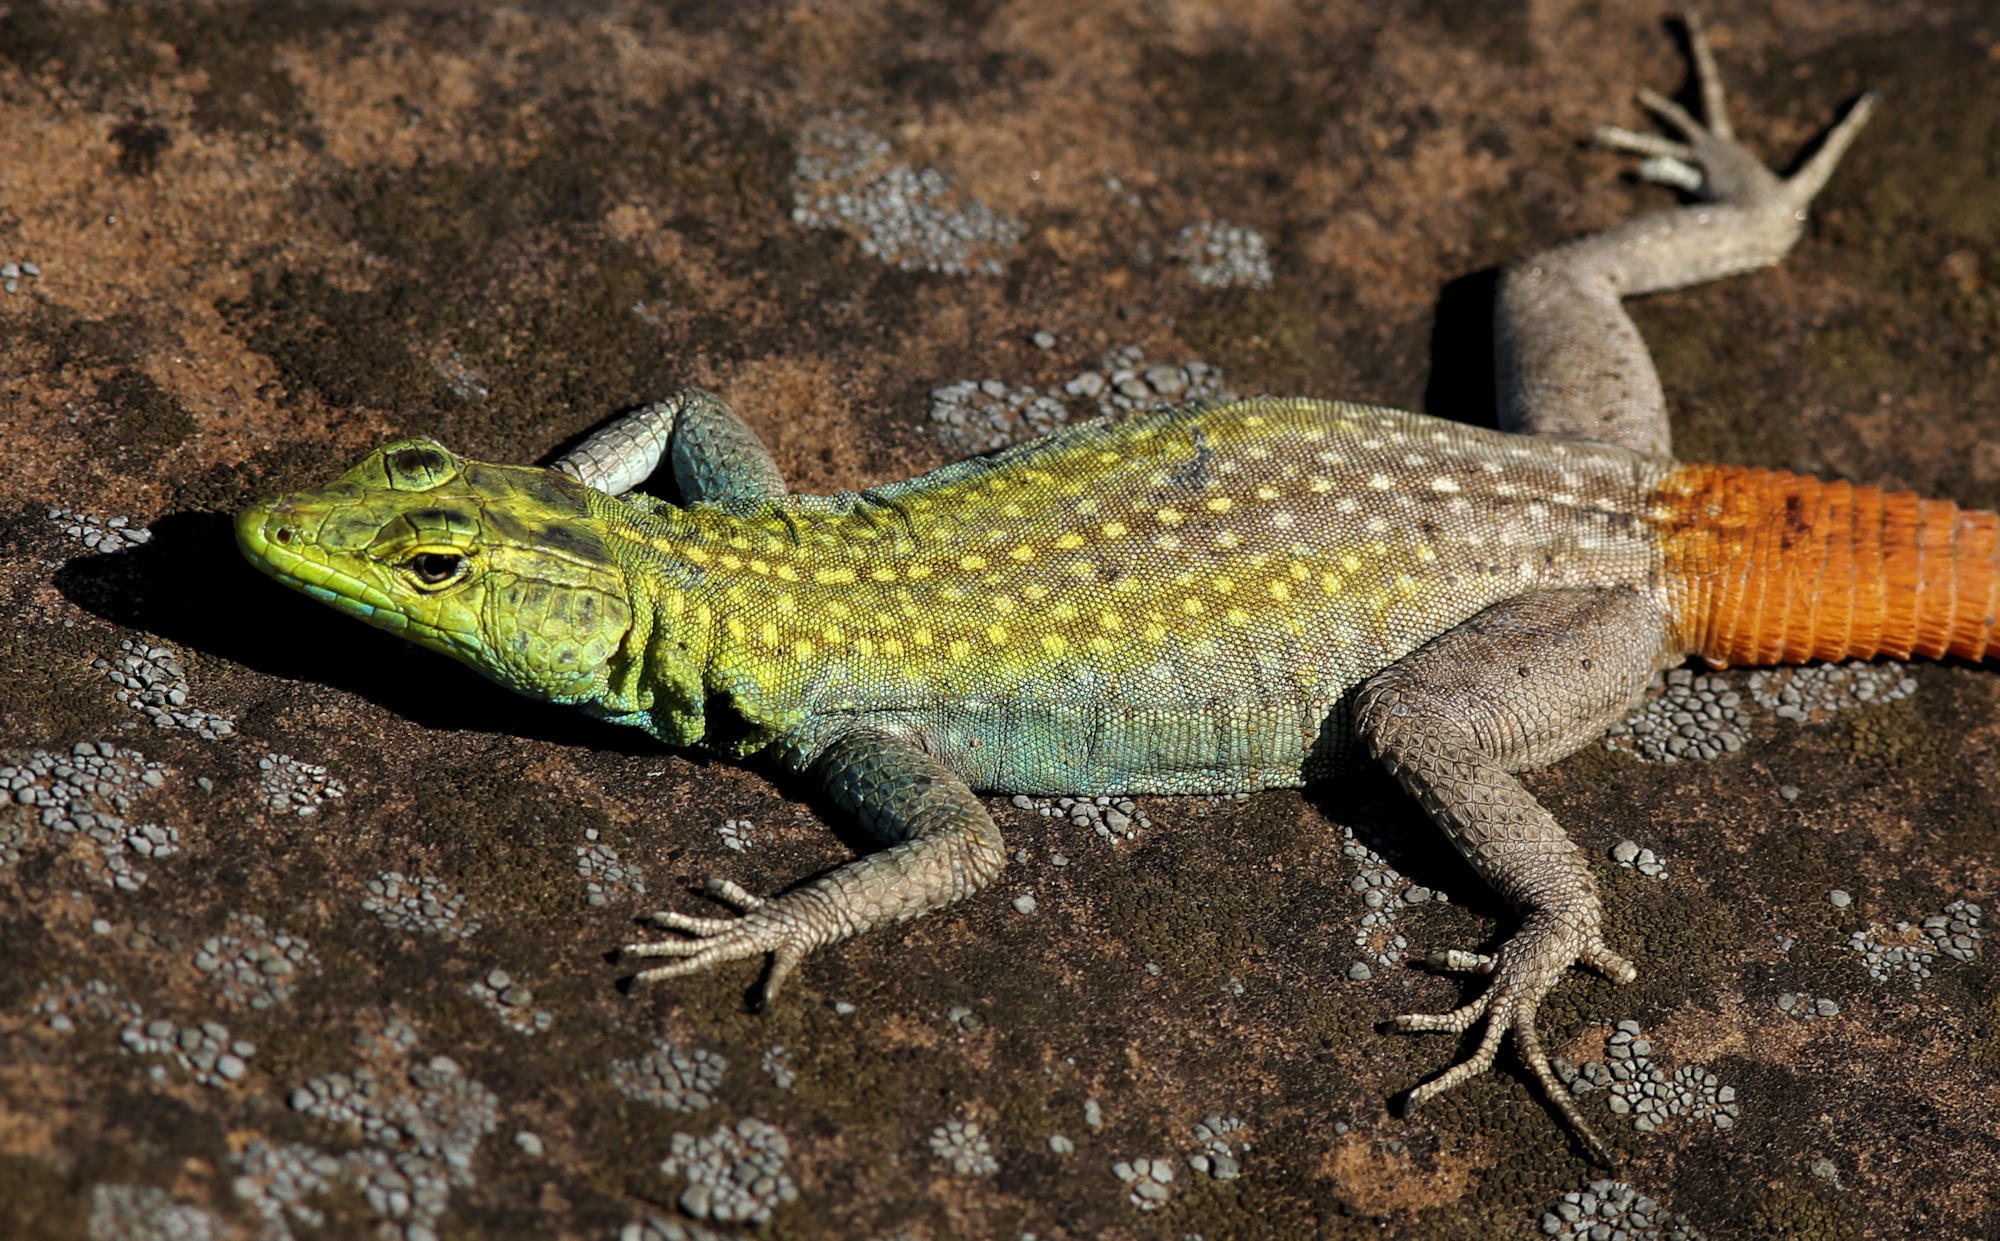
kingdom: Animalia
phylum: Chordata
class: Squamata
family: Cordylidae
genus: Platysaurus
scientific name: Platysaurus intermedius
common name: Common flat lizard
